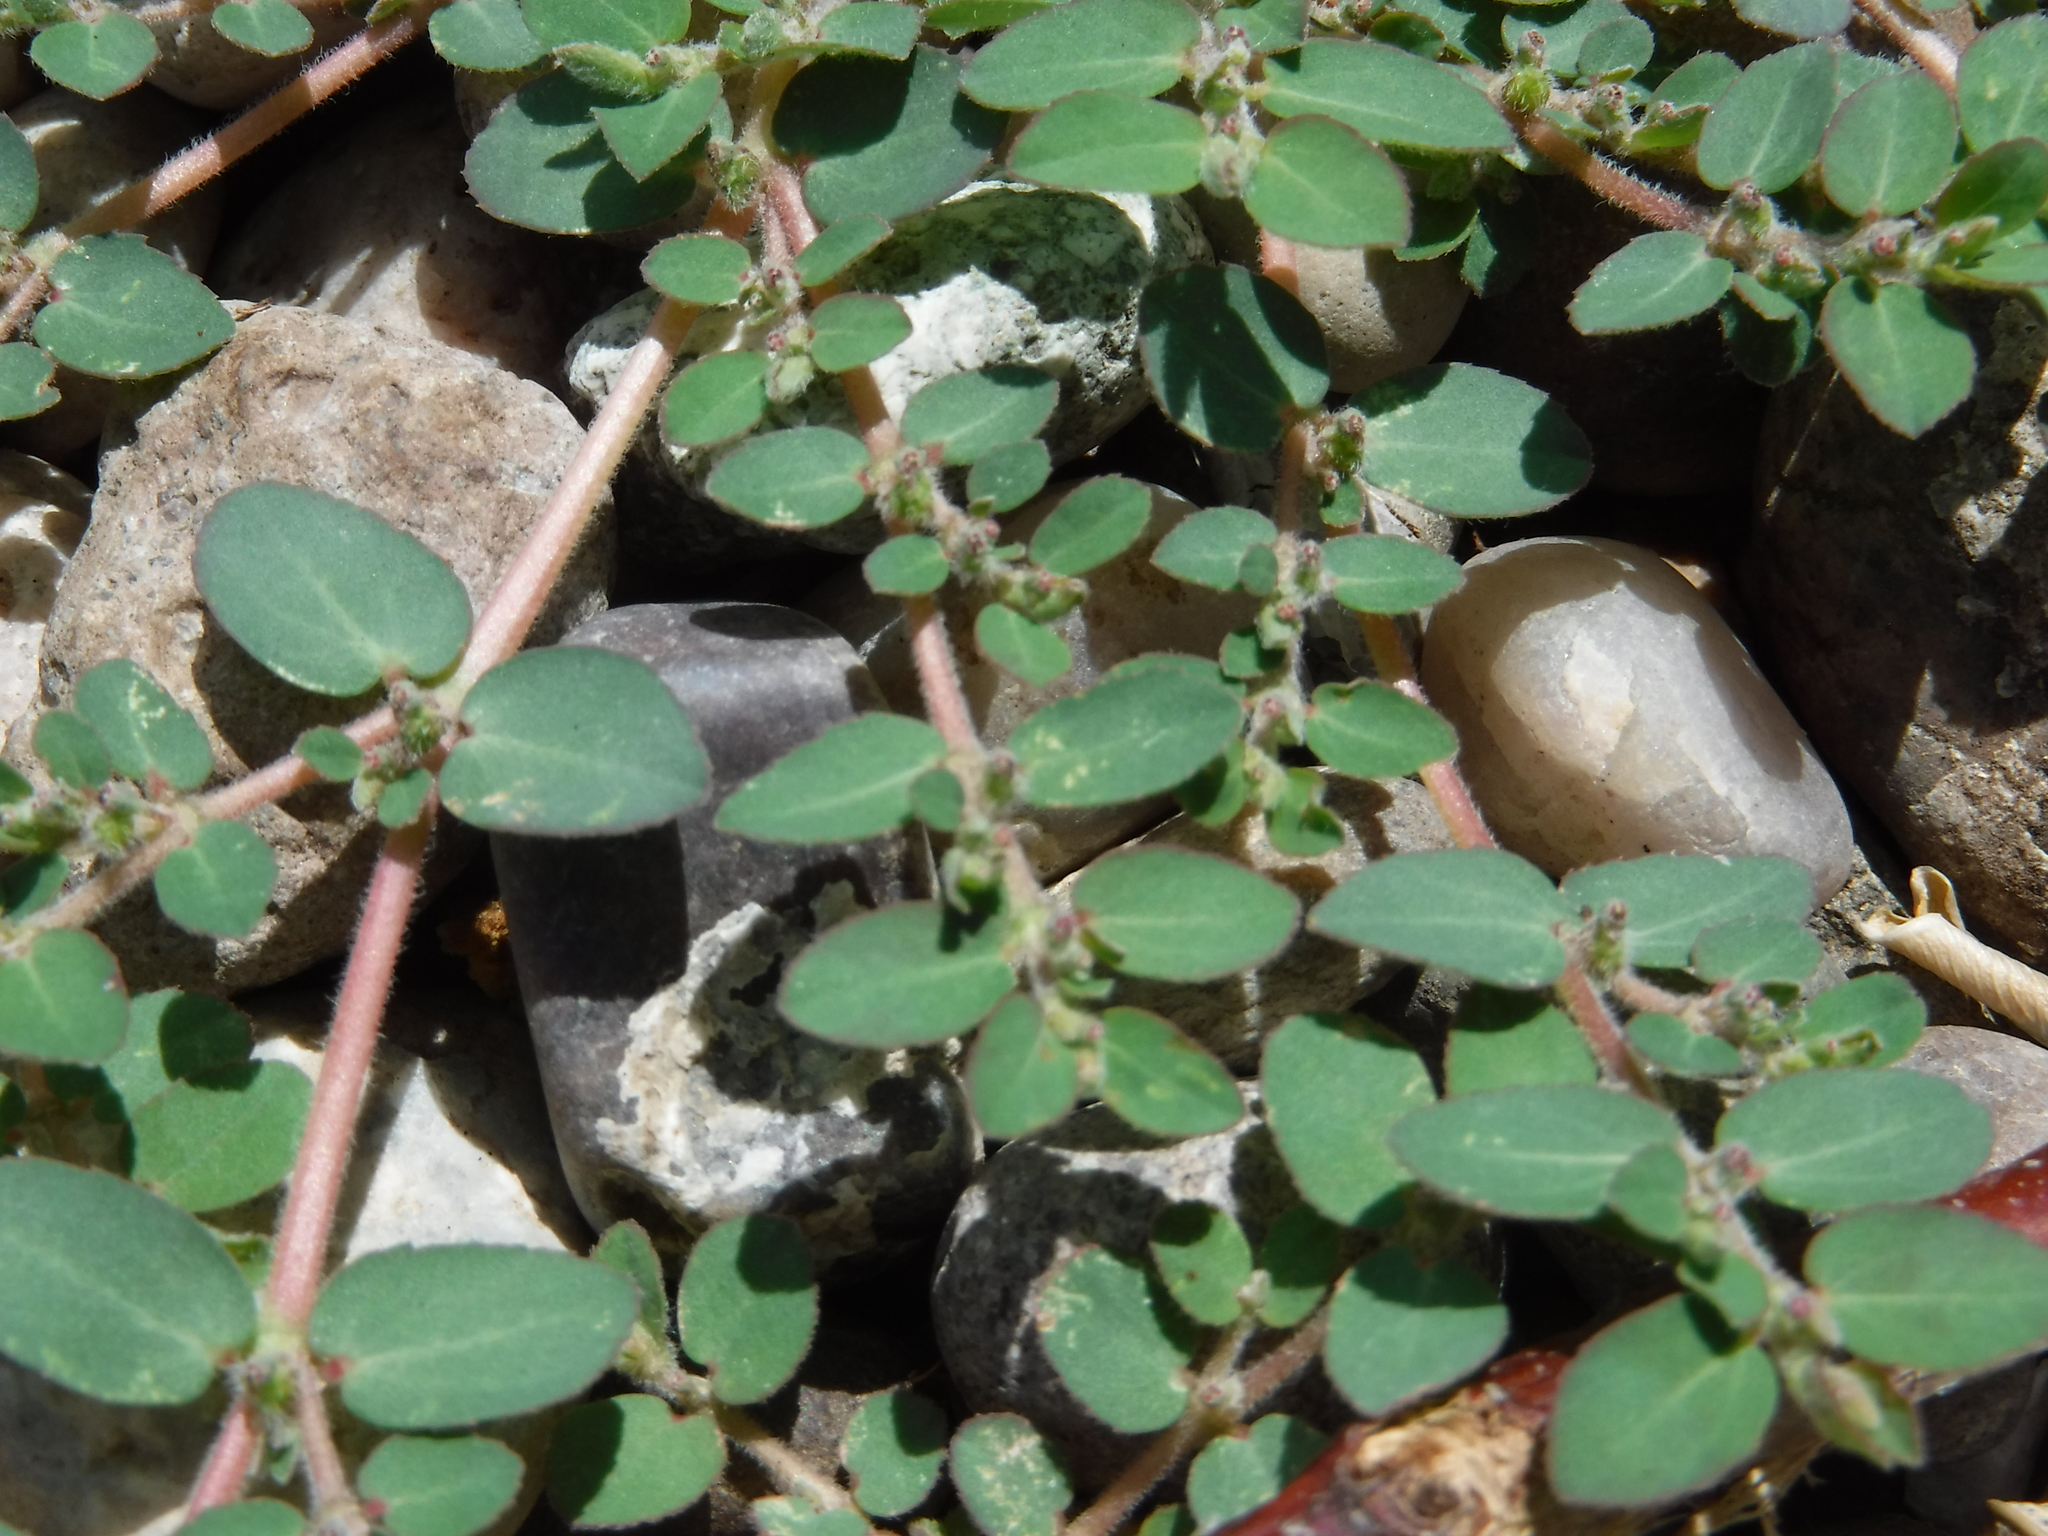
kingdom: Plantae
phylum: Tracheophyta
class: Magnoliopsida
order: Malpighiales
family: Euphorbiaceae
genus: Euphorbia
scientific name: Euphorbia prostrata
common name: Prostrate sandmat
